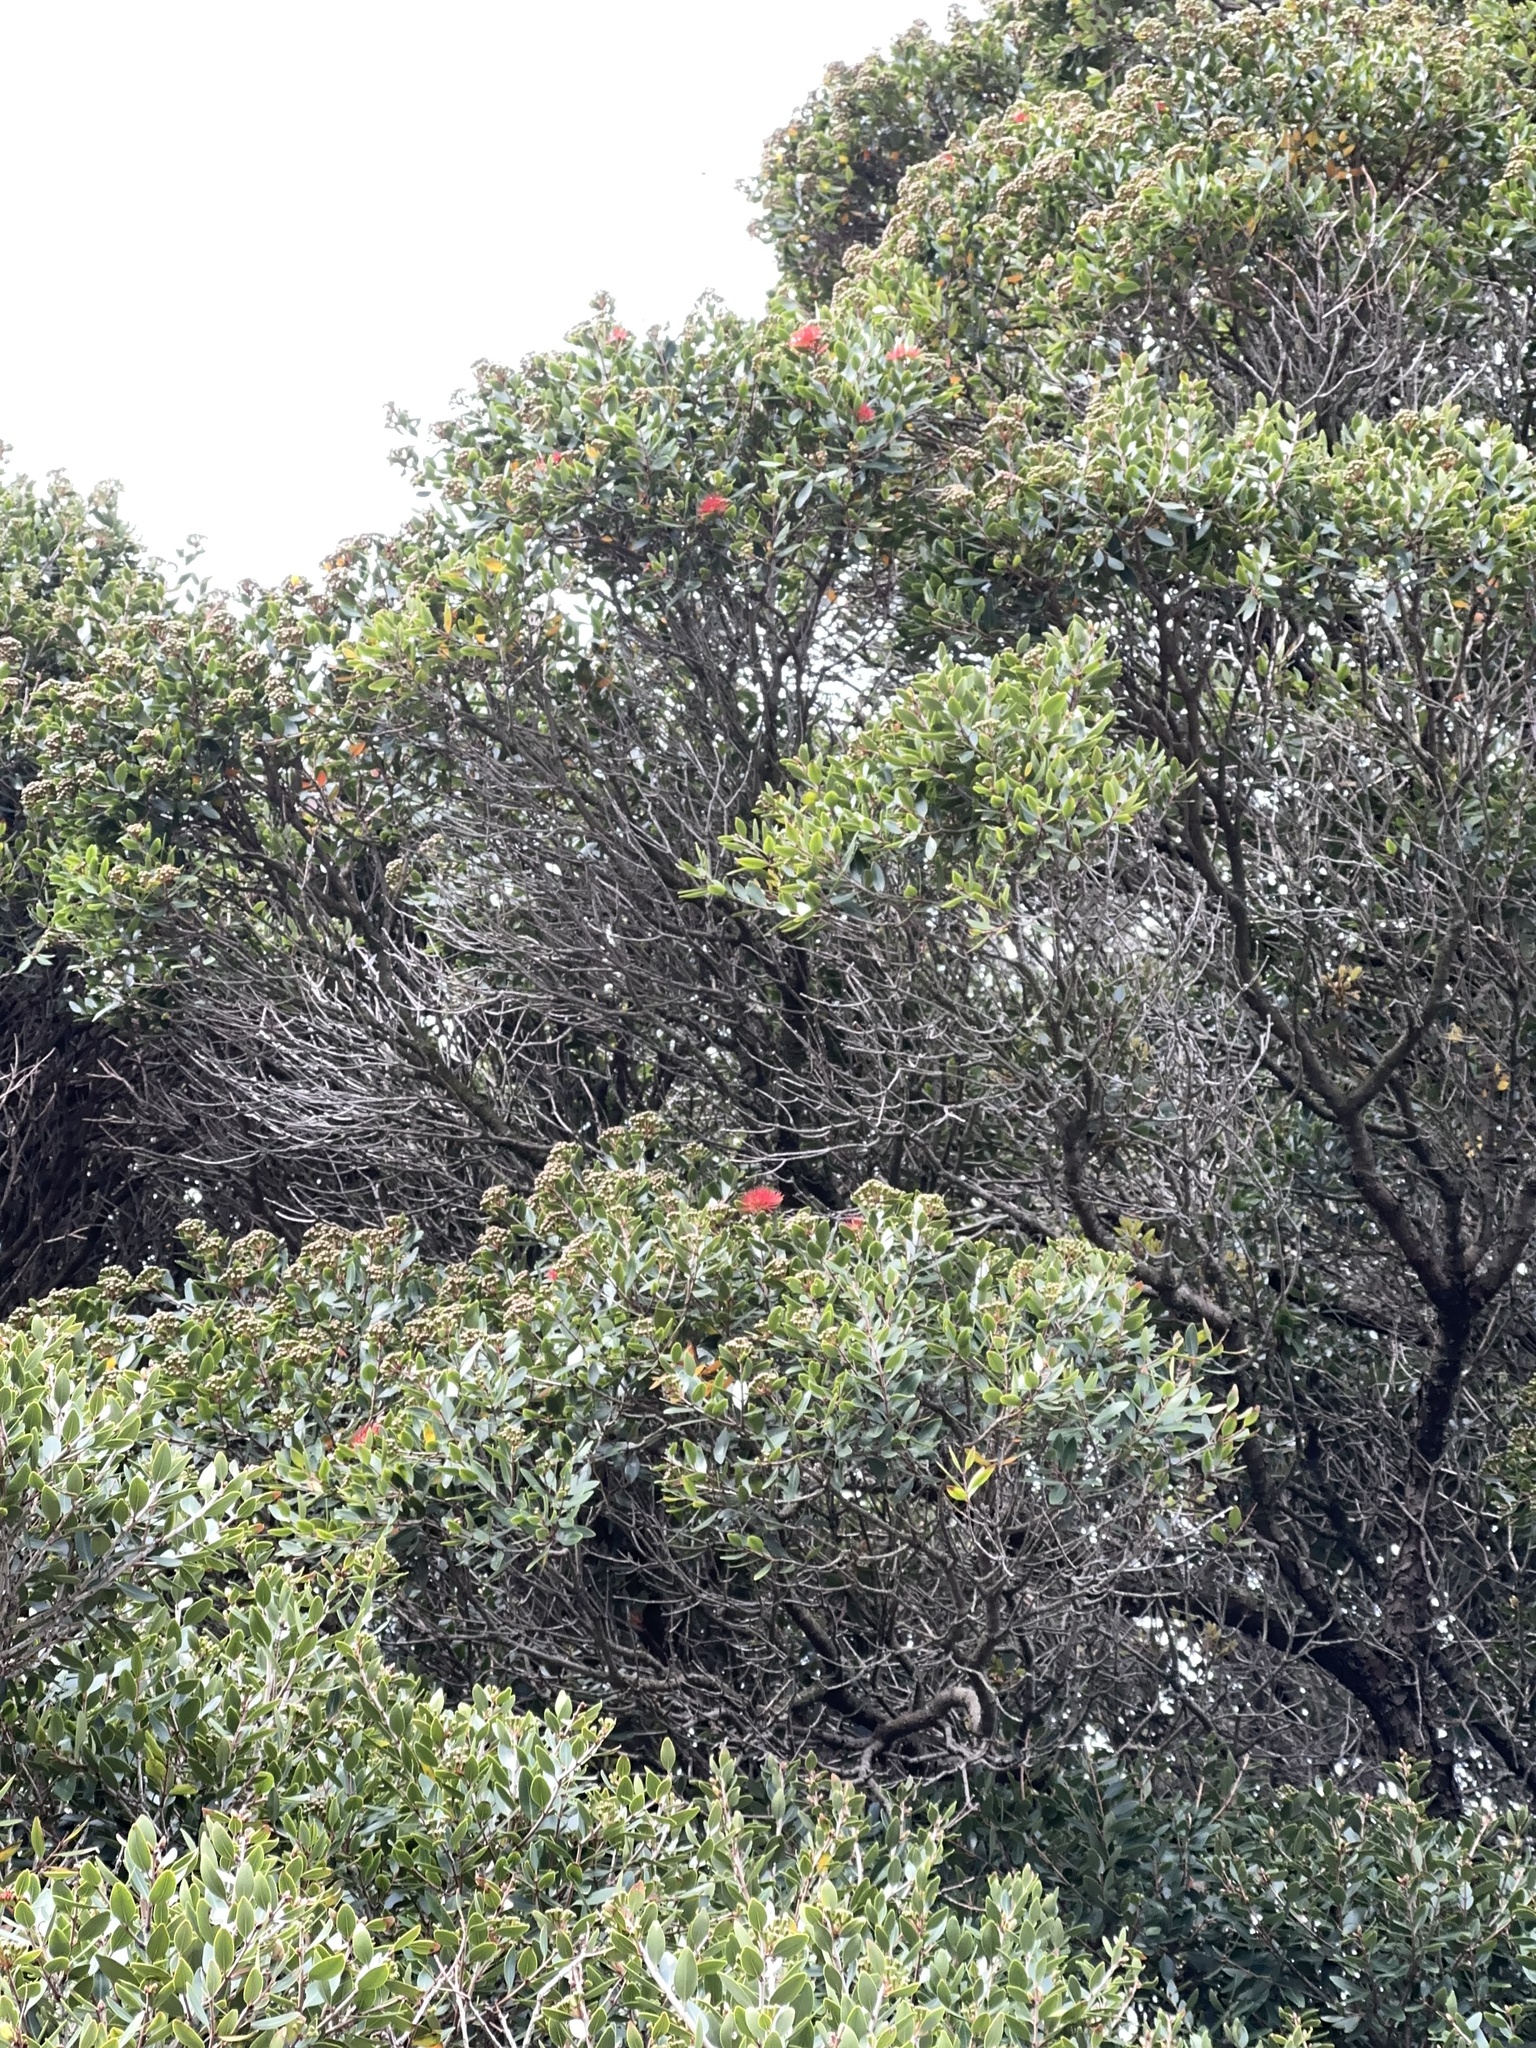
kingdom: Plantae
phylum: Tracheophyta
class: Magnoliopsida
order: Myrtales
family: Myrtaceae
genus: Metrosideros
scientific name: Metrosideros robusta
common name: Northern rata
